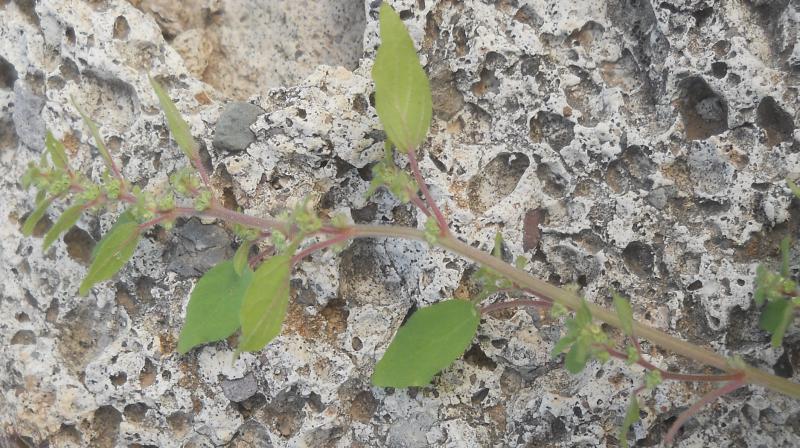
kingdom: Plantae
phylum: Tracheophyta
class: Magnoliopsida
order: Rosales
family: Urticaceae
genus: Parietaria
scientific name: Parietaria judaica
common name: Pellitory-of-the-wall
